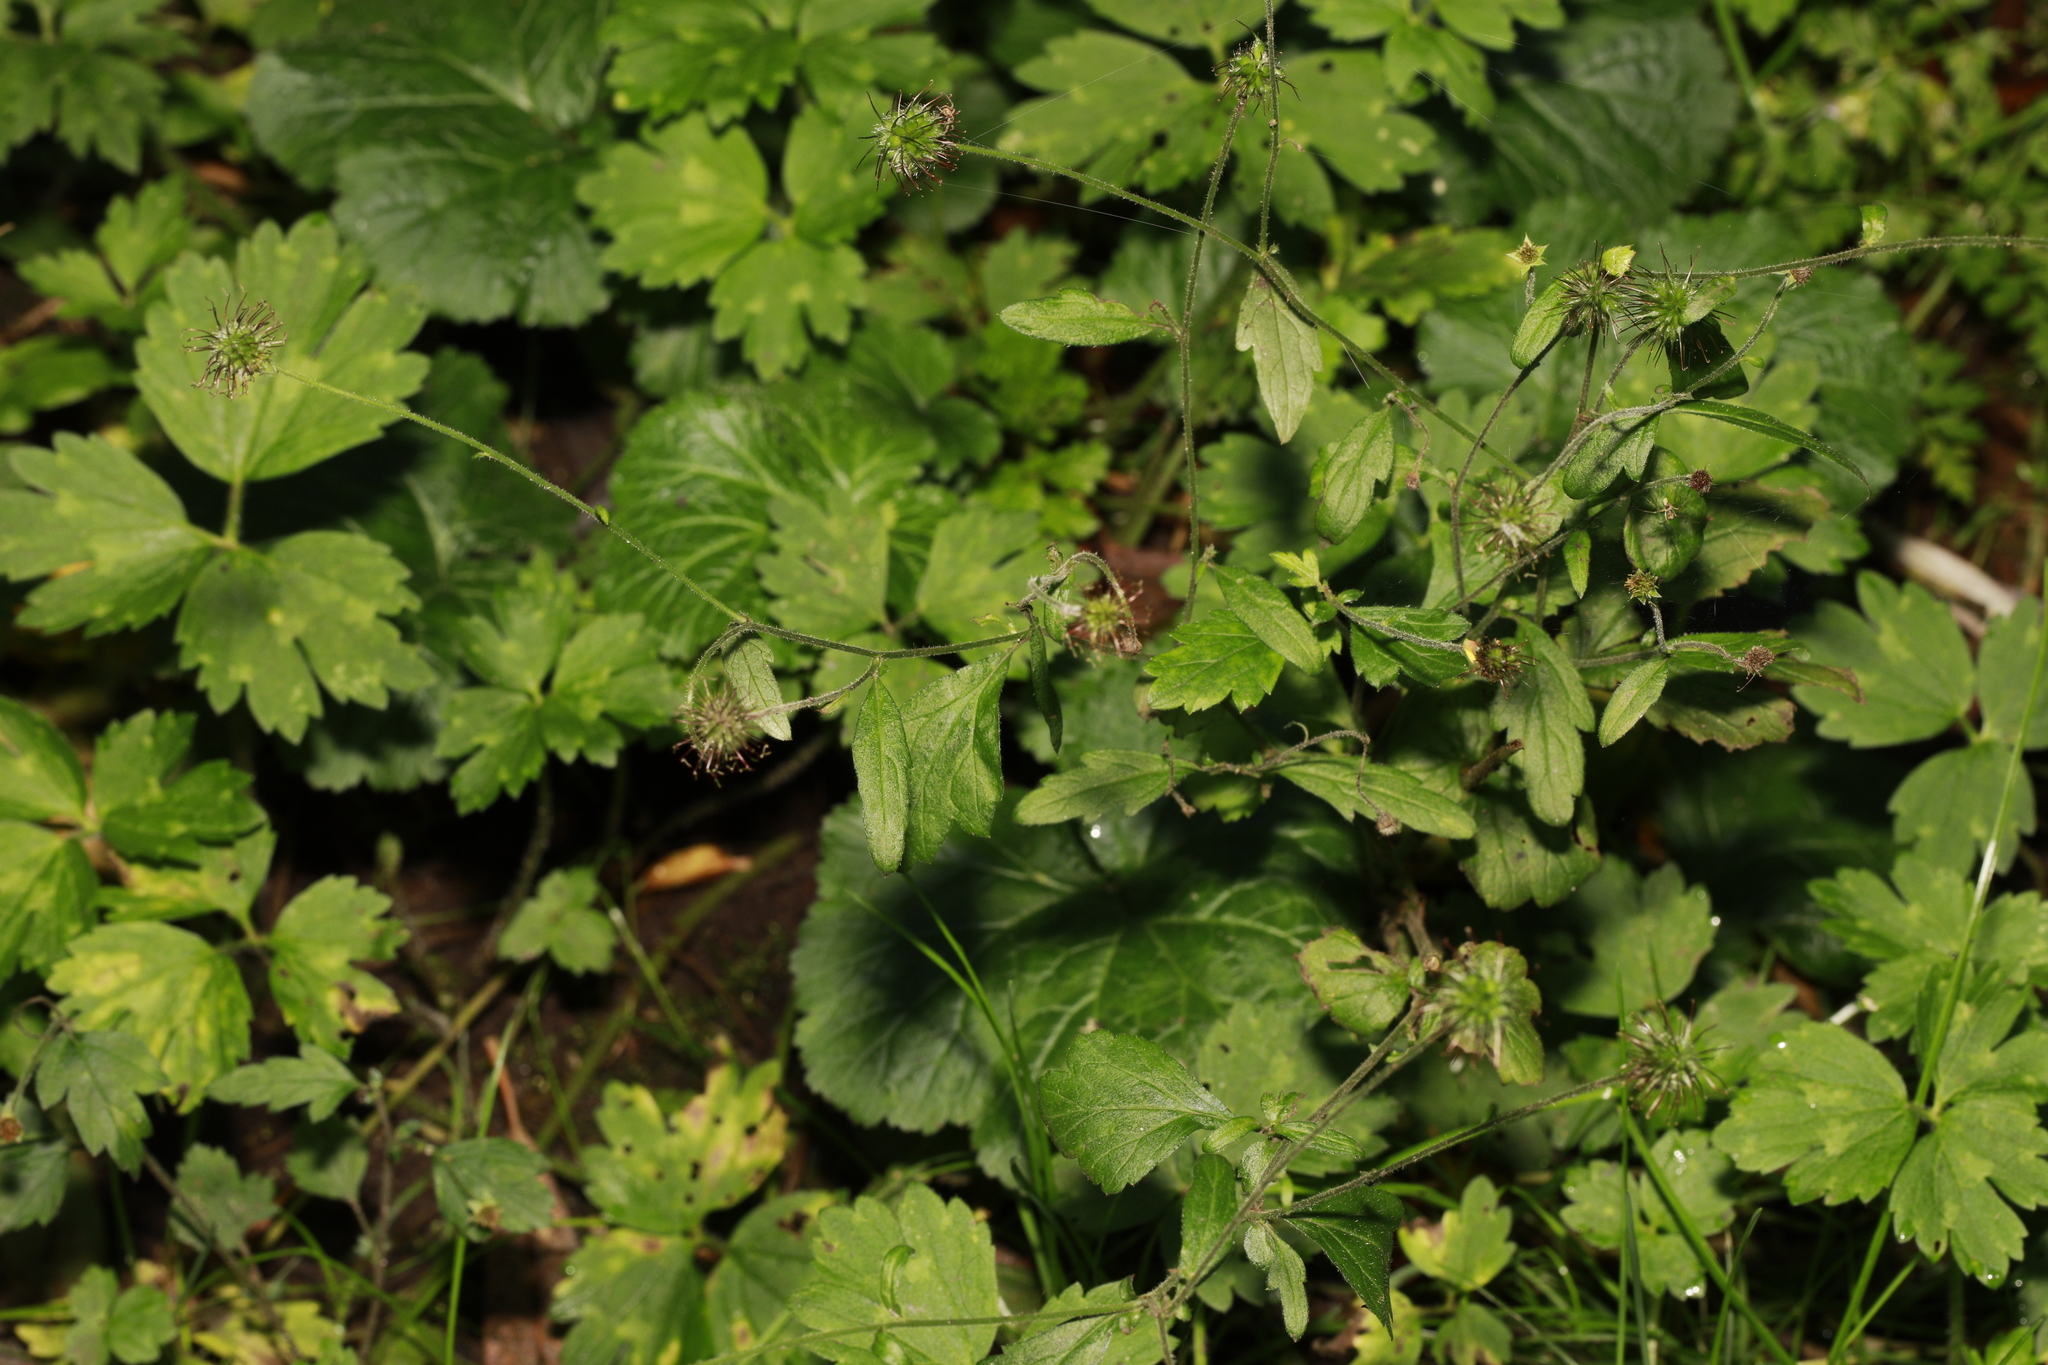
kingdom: Plantae
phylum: Tracheophyta
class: Magnoliopsida
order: Rosales
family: Rosaceae
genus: Geum
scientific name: Geum urbanum
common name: Wood avens
